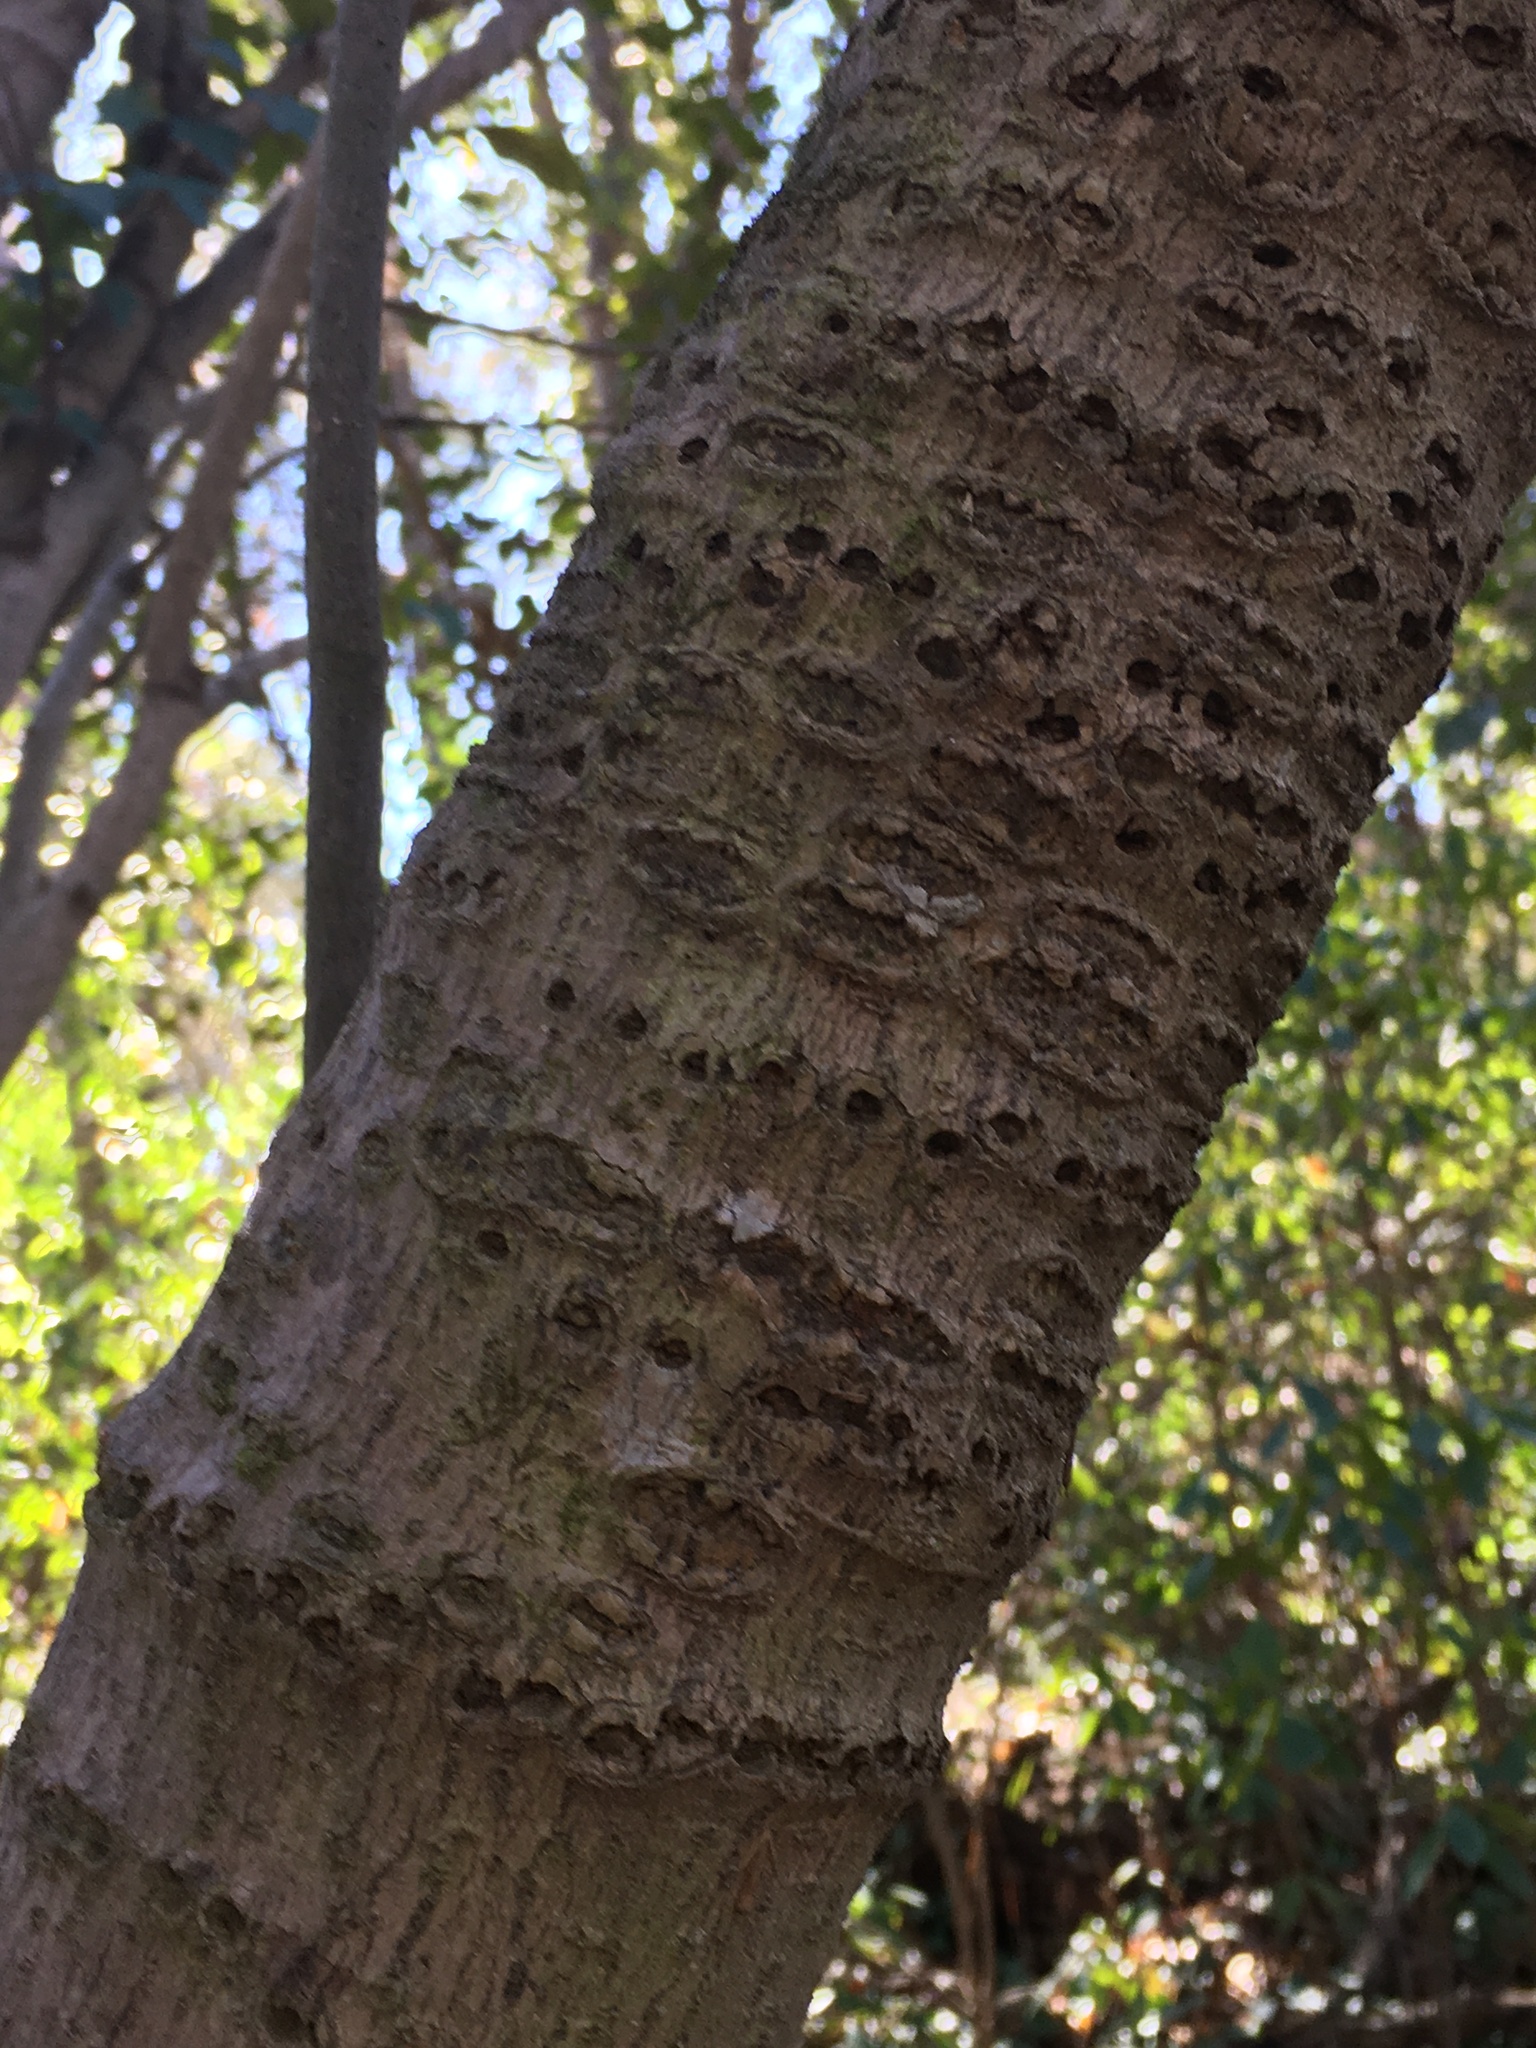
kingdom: Animalia
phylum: Chordata
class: Aves
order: Piciformes
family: Picidae
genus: Sphyrapicus
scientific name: Sphyrapicus varius
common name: Yellow-bellied sapsucker
